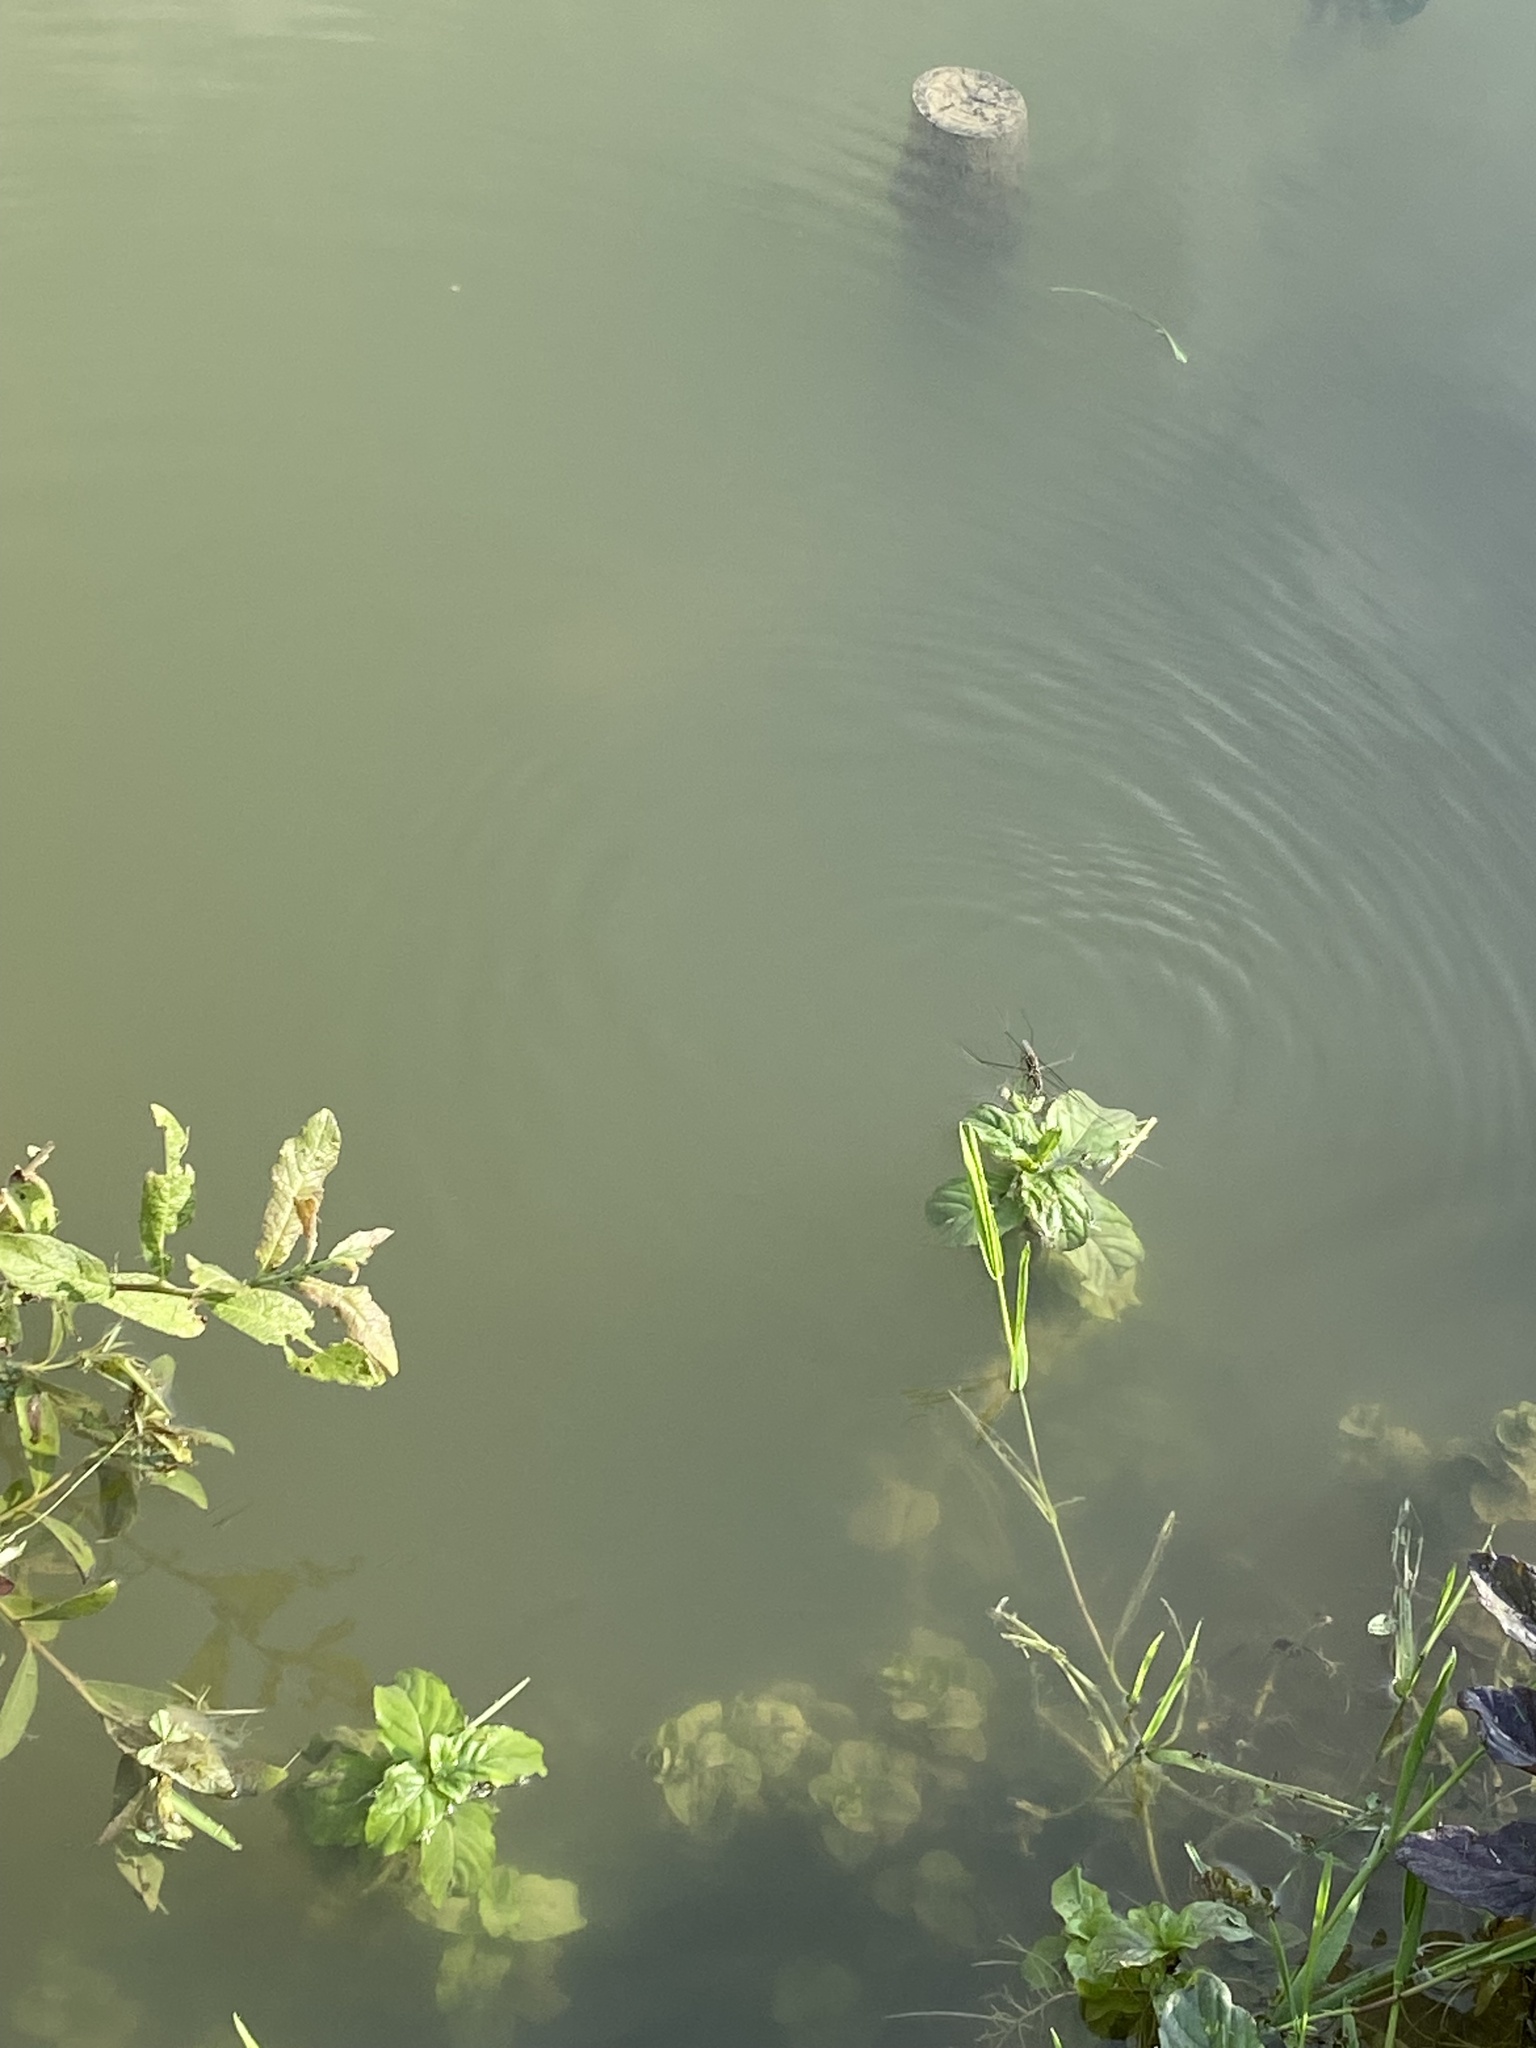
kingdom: Animalia
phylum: Arthropoda
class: Insecta
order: Hemiptera
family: Gerridae
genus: Aquarius
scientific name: Aquarius paludum
